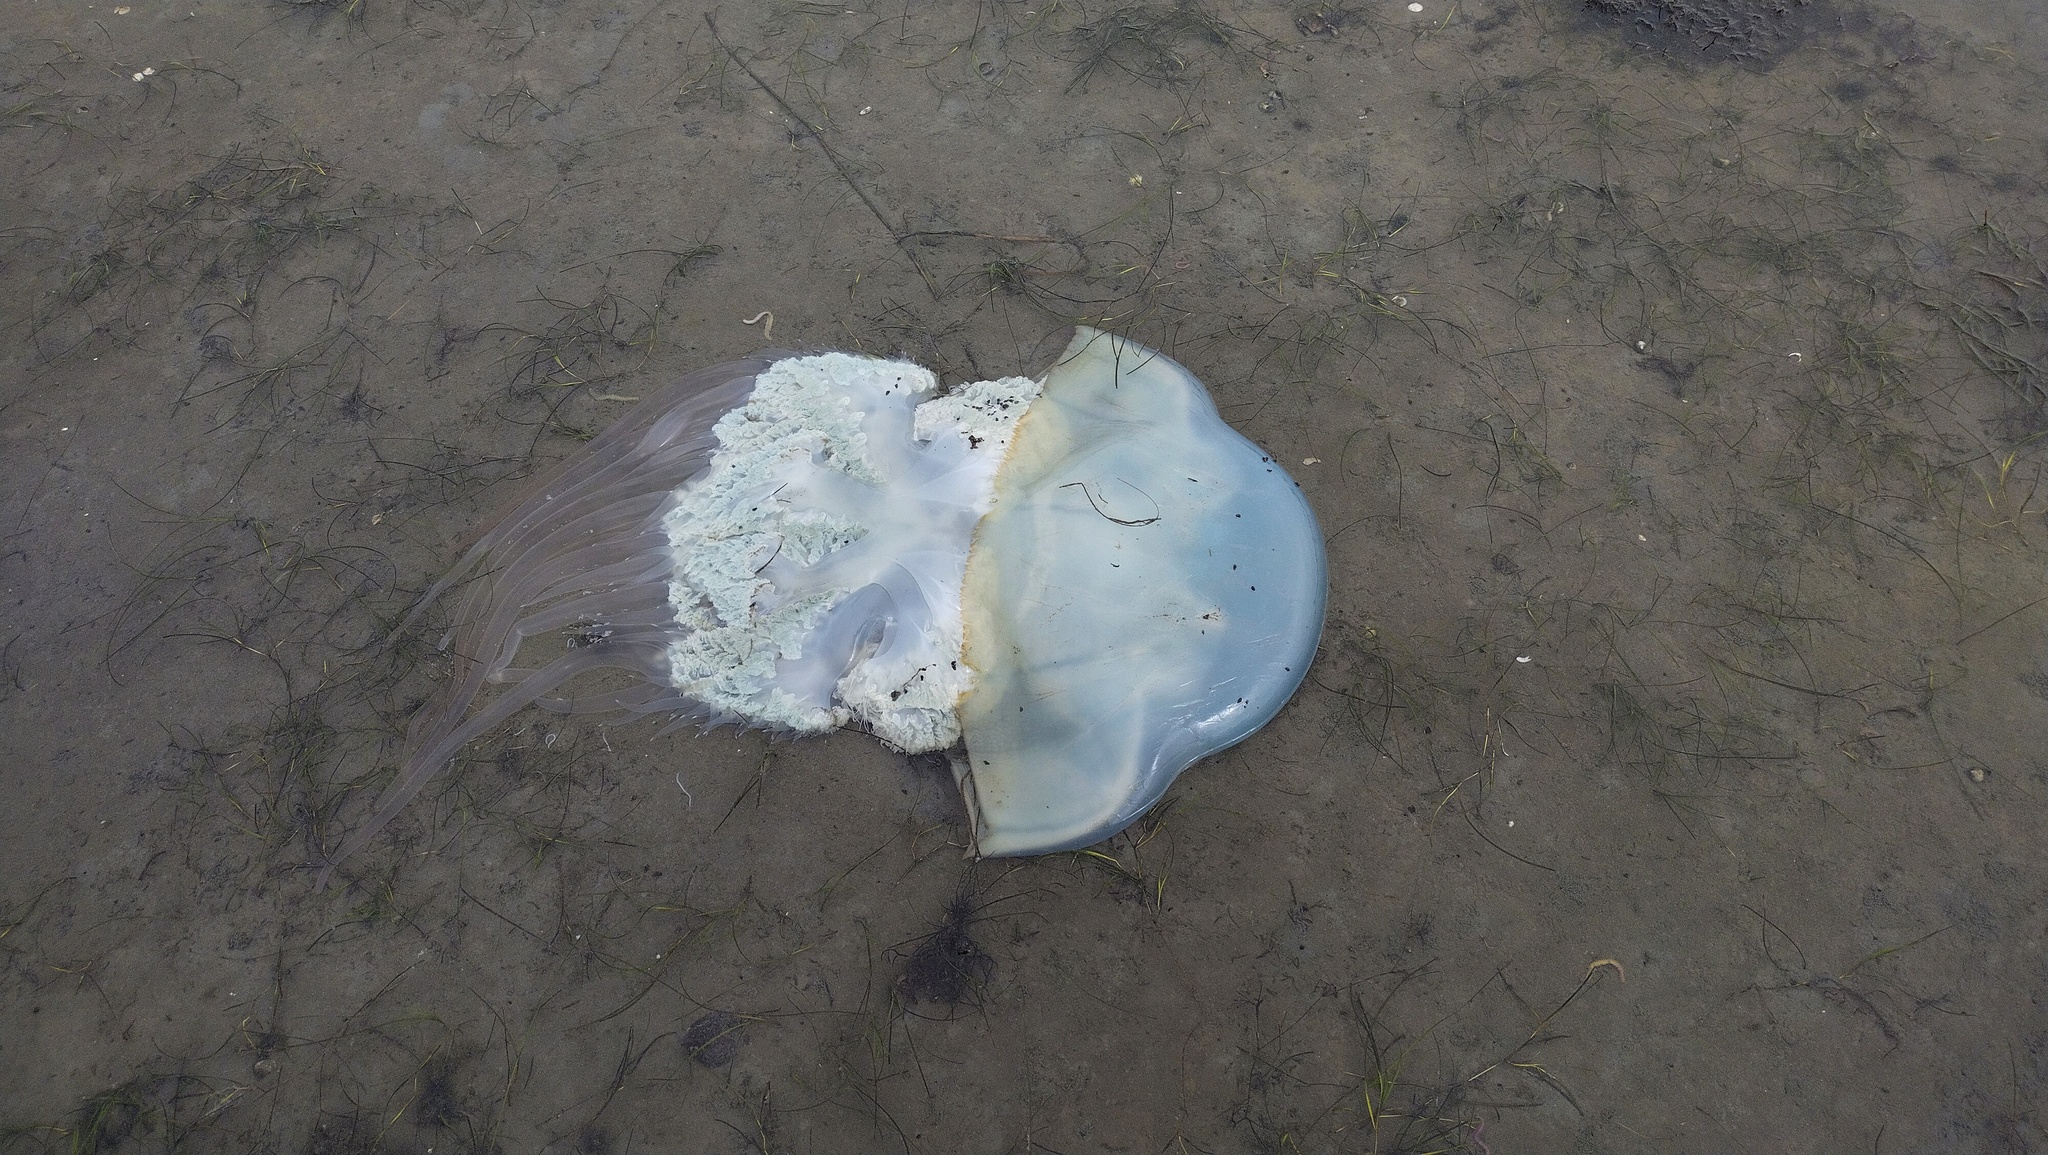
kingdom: Animalia
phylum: Cnidaria
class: Scyphozoa
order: Rhizostomeae
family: Rhizostomatidae
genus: Rhopilema
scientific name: Rhopilema esculentum
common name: Japanese edible jellyfish
